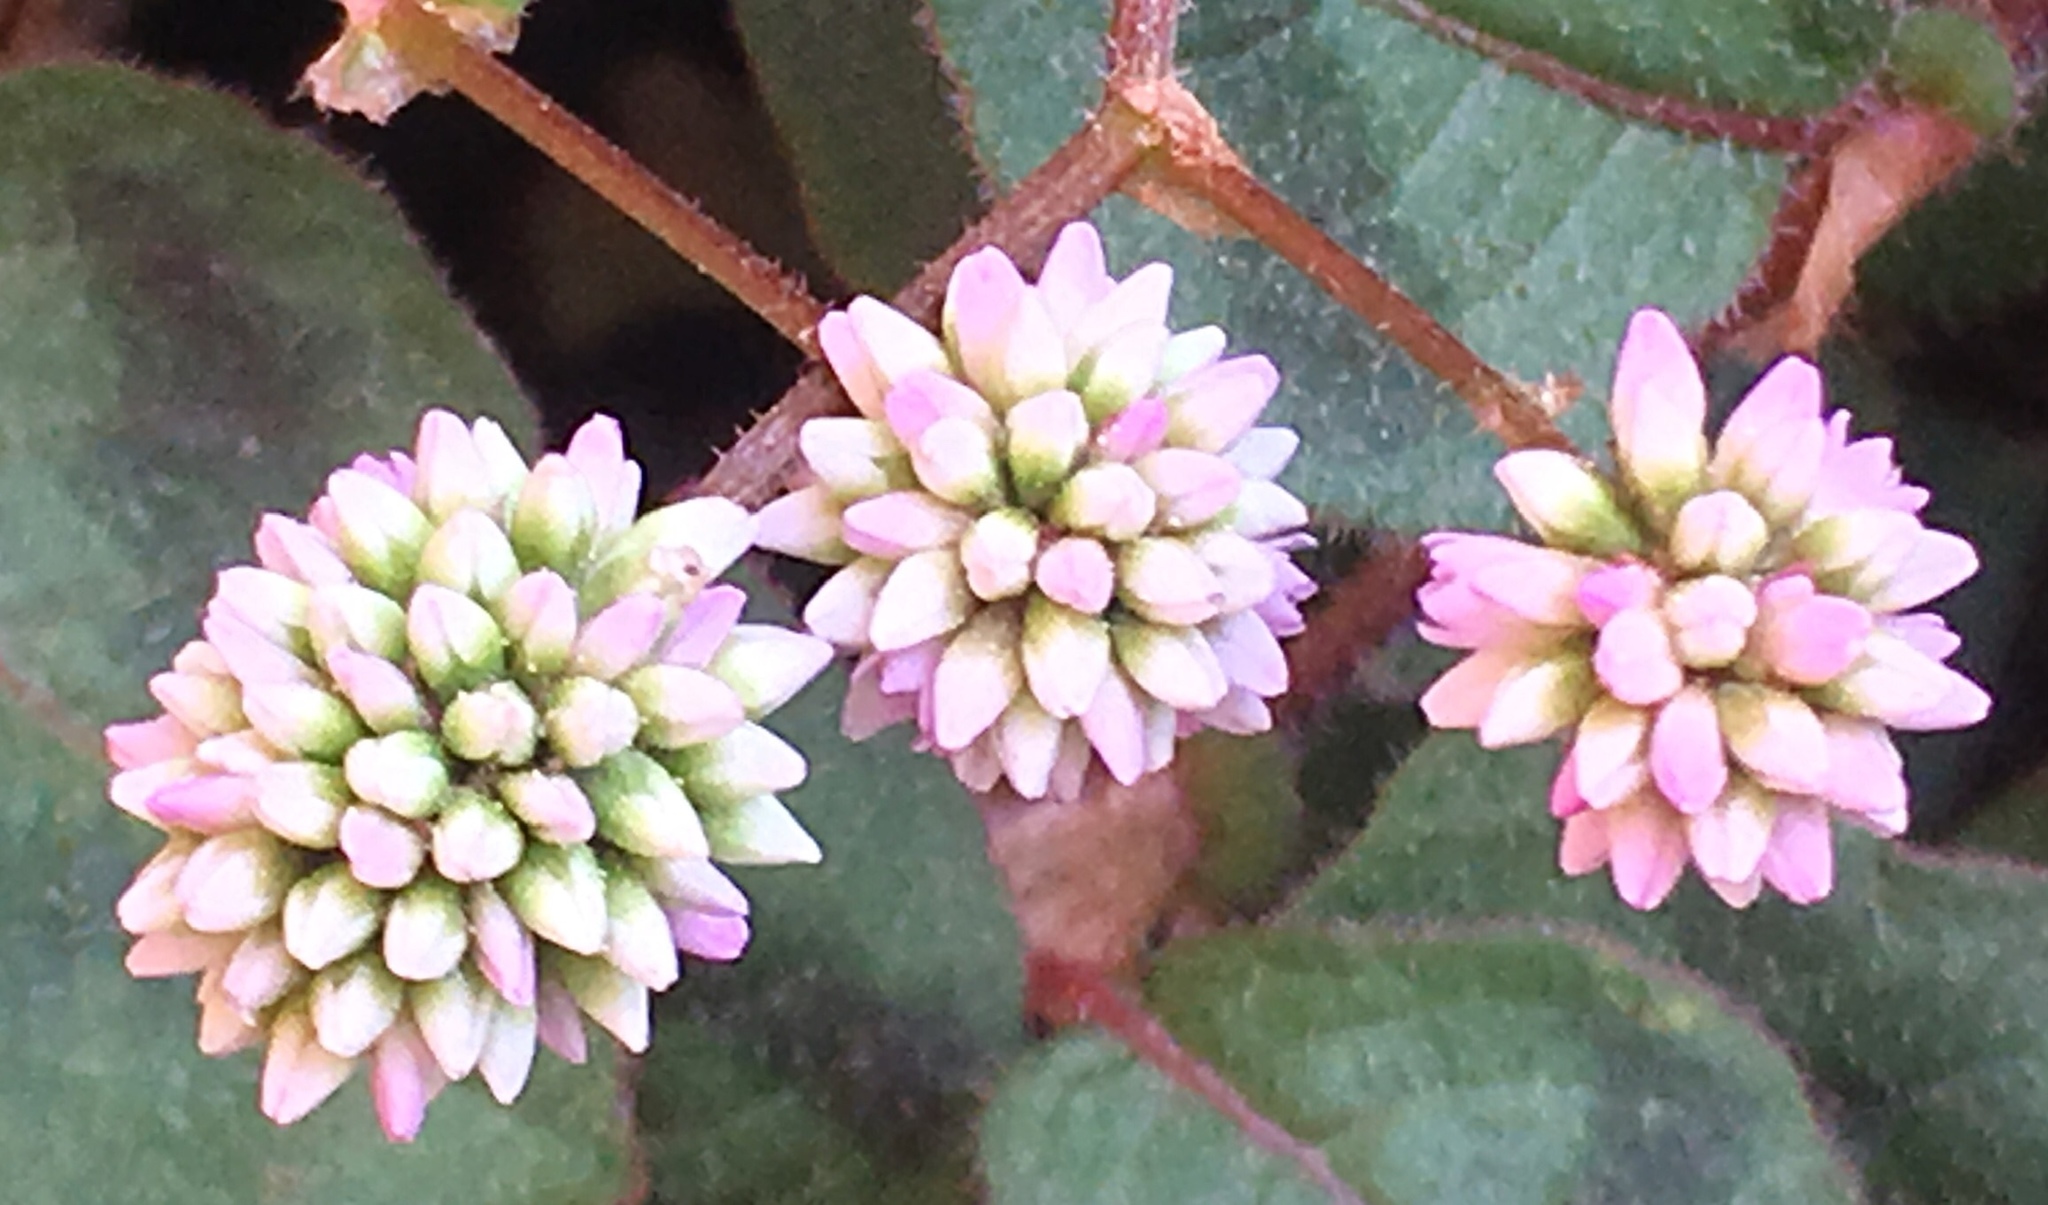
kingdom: Plantae
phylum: Tracheophyta
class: Magnoliopsida
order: Caryophyllales
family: Polygonaceae
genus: Persicaria
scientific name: Persicaria capitata
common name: Pinkhead smartweed
